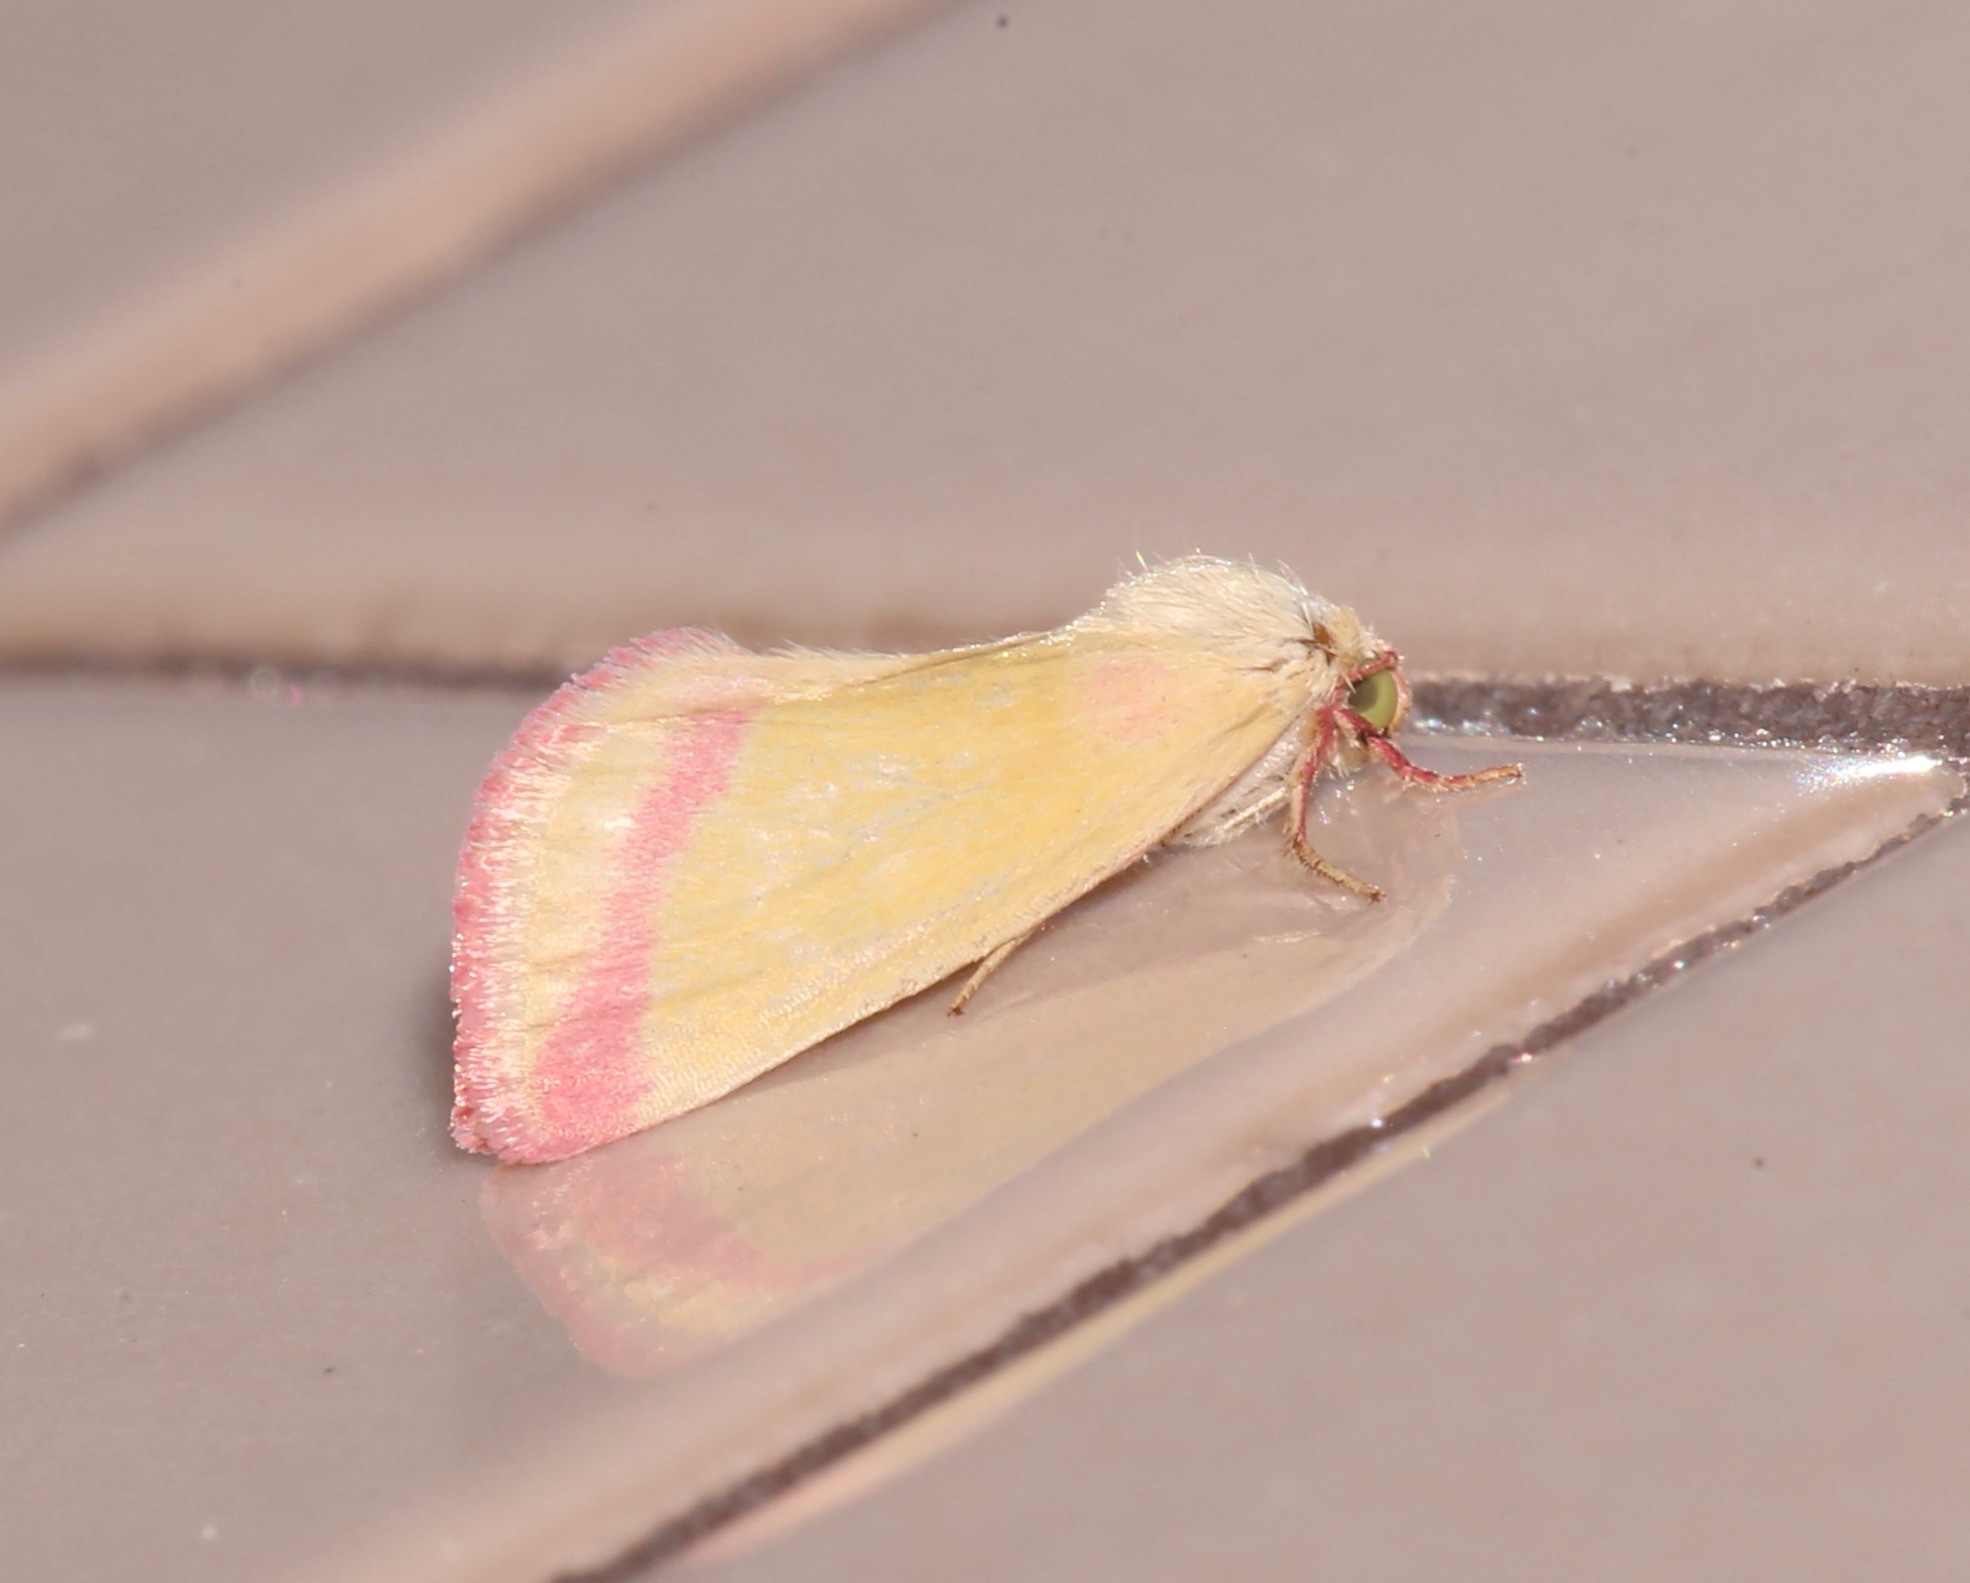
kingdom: Animalia
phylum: Arthropoda
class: Insecta
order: Lepidoptera
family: Noctuidae
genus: Heliocheilus
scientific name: Heliocheilus toralis
